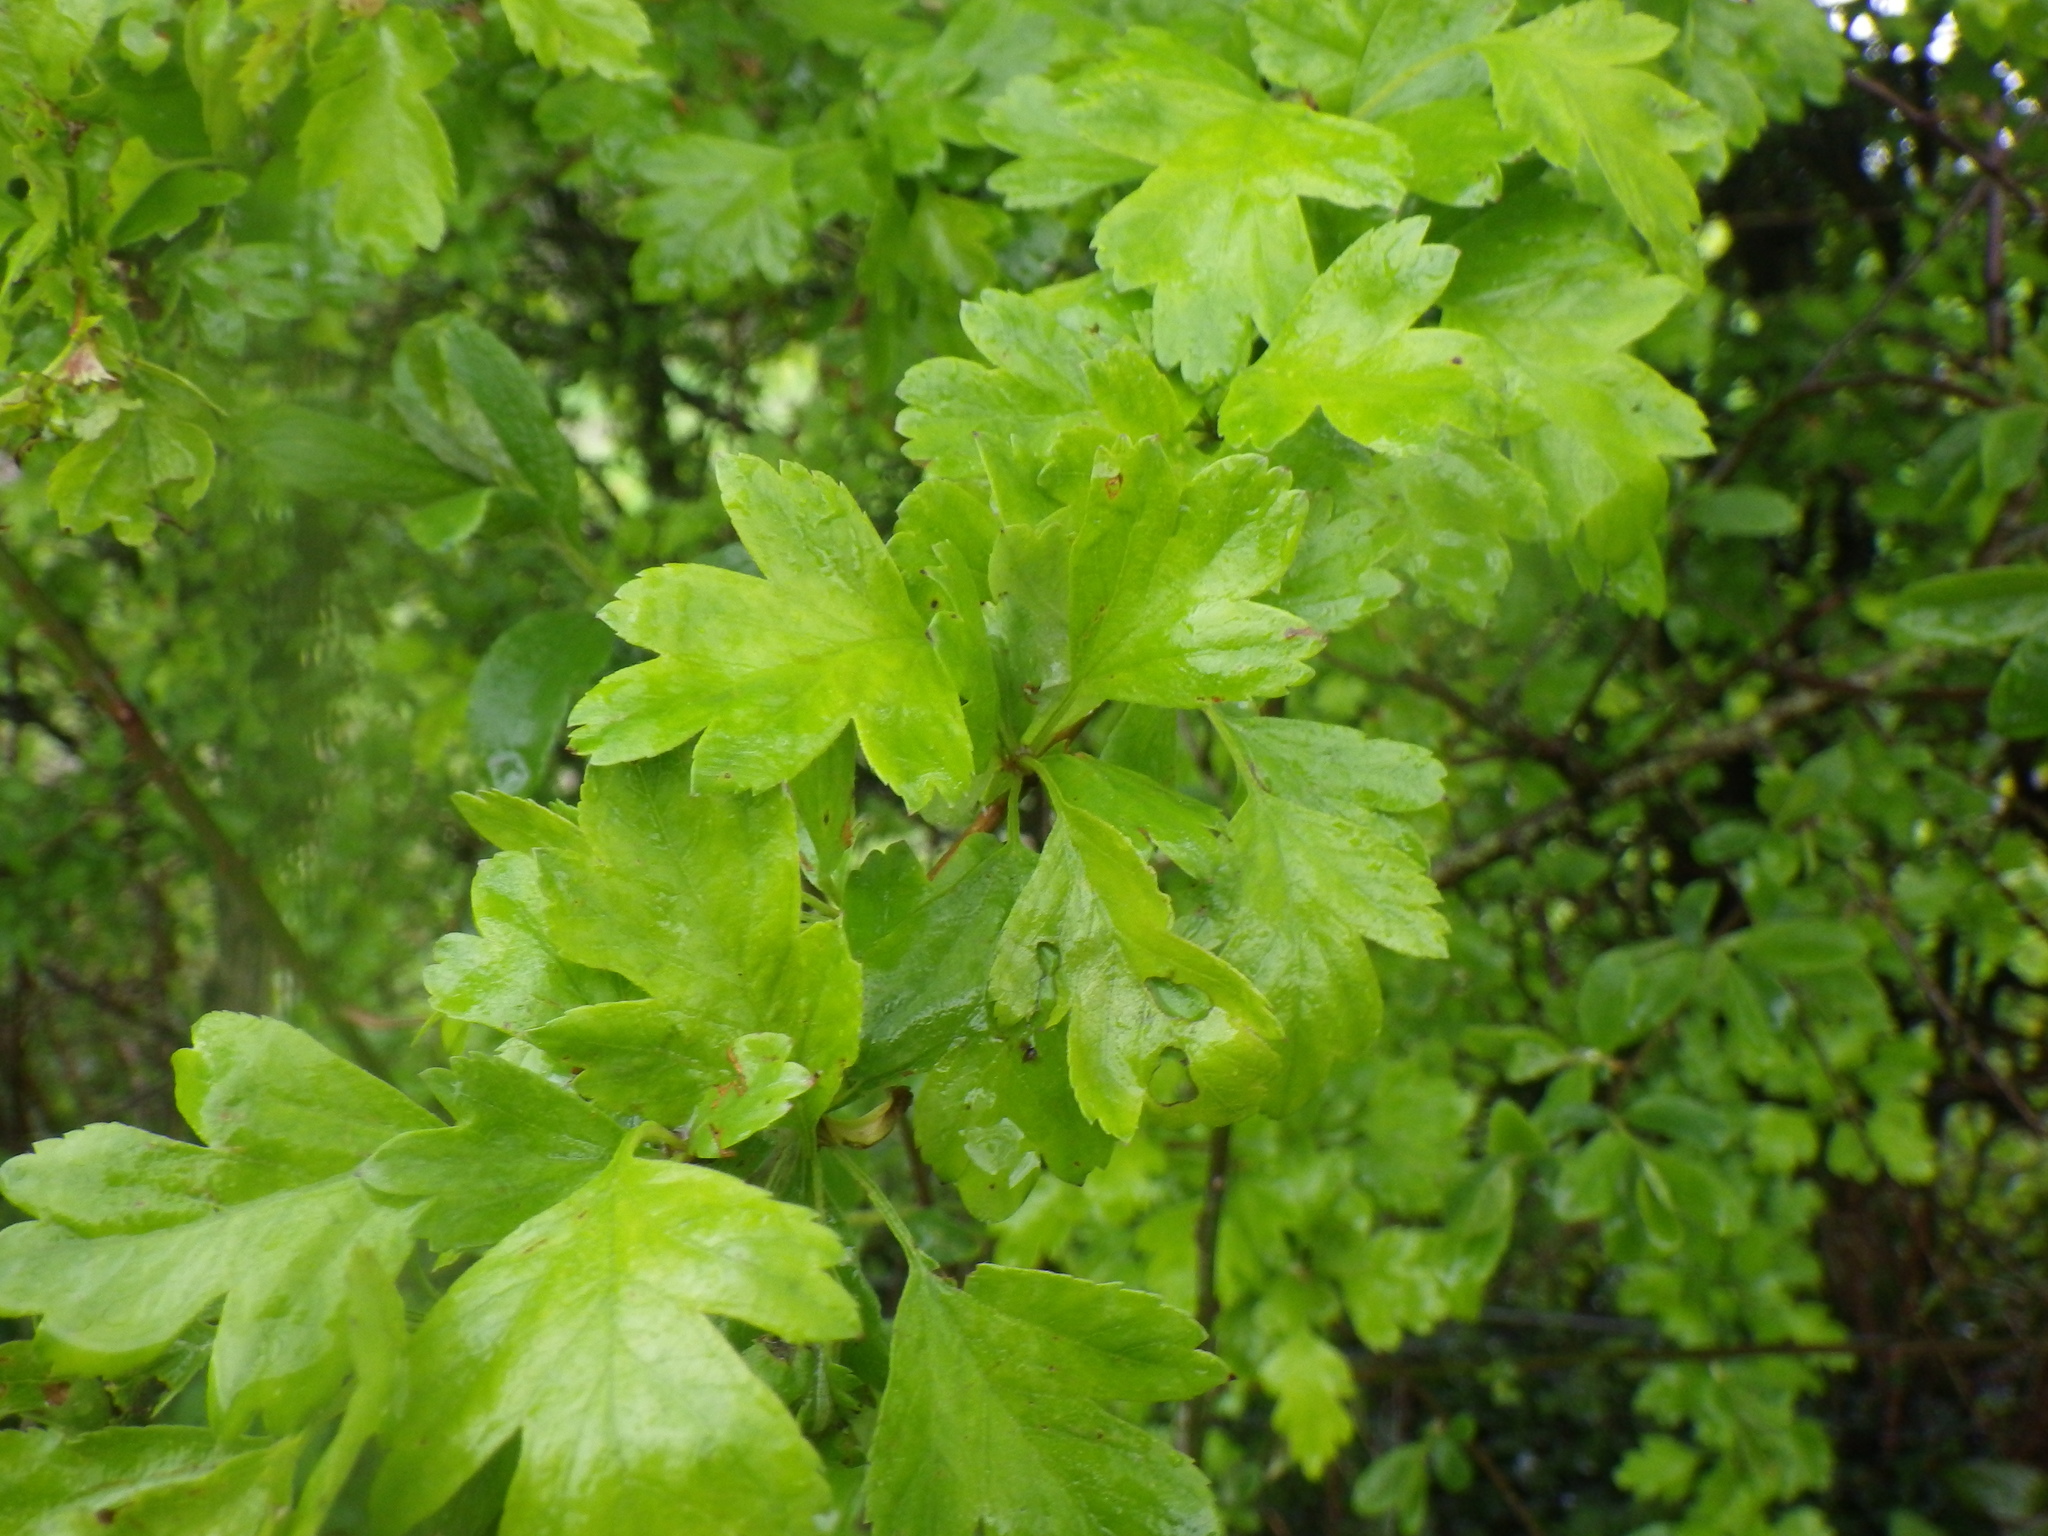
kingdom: Plantae
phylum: Tracheophyta
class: Magnoliopsida
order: Rosales
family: Rosaceae
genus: Crataegus
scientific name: Crataegus monogyna
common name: Hawthorn
